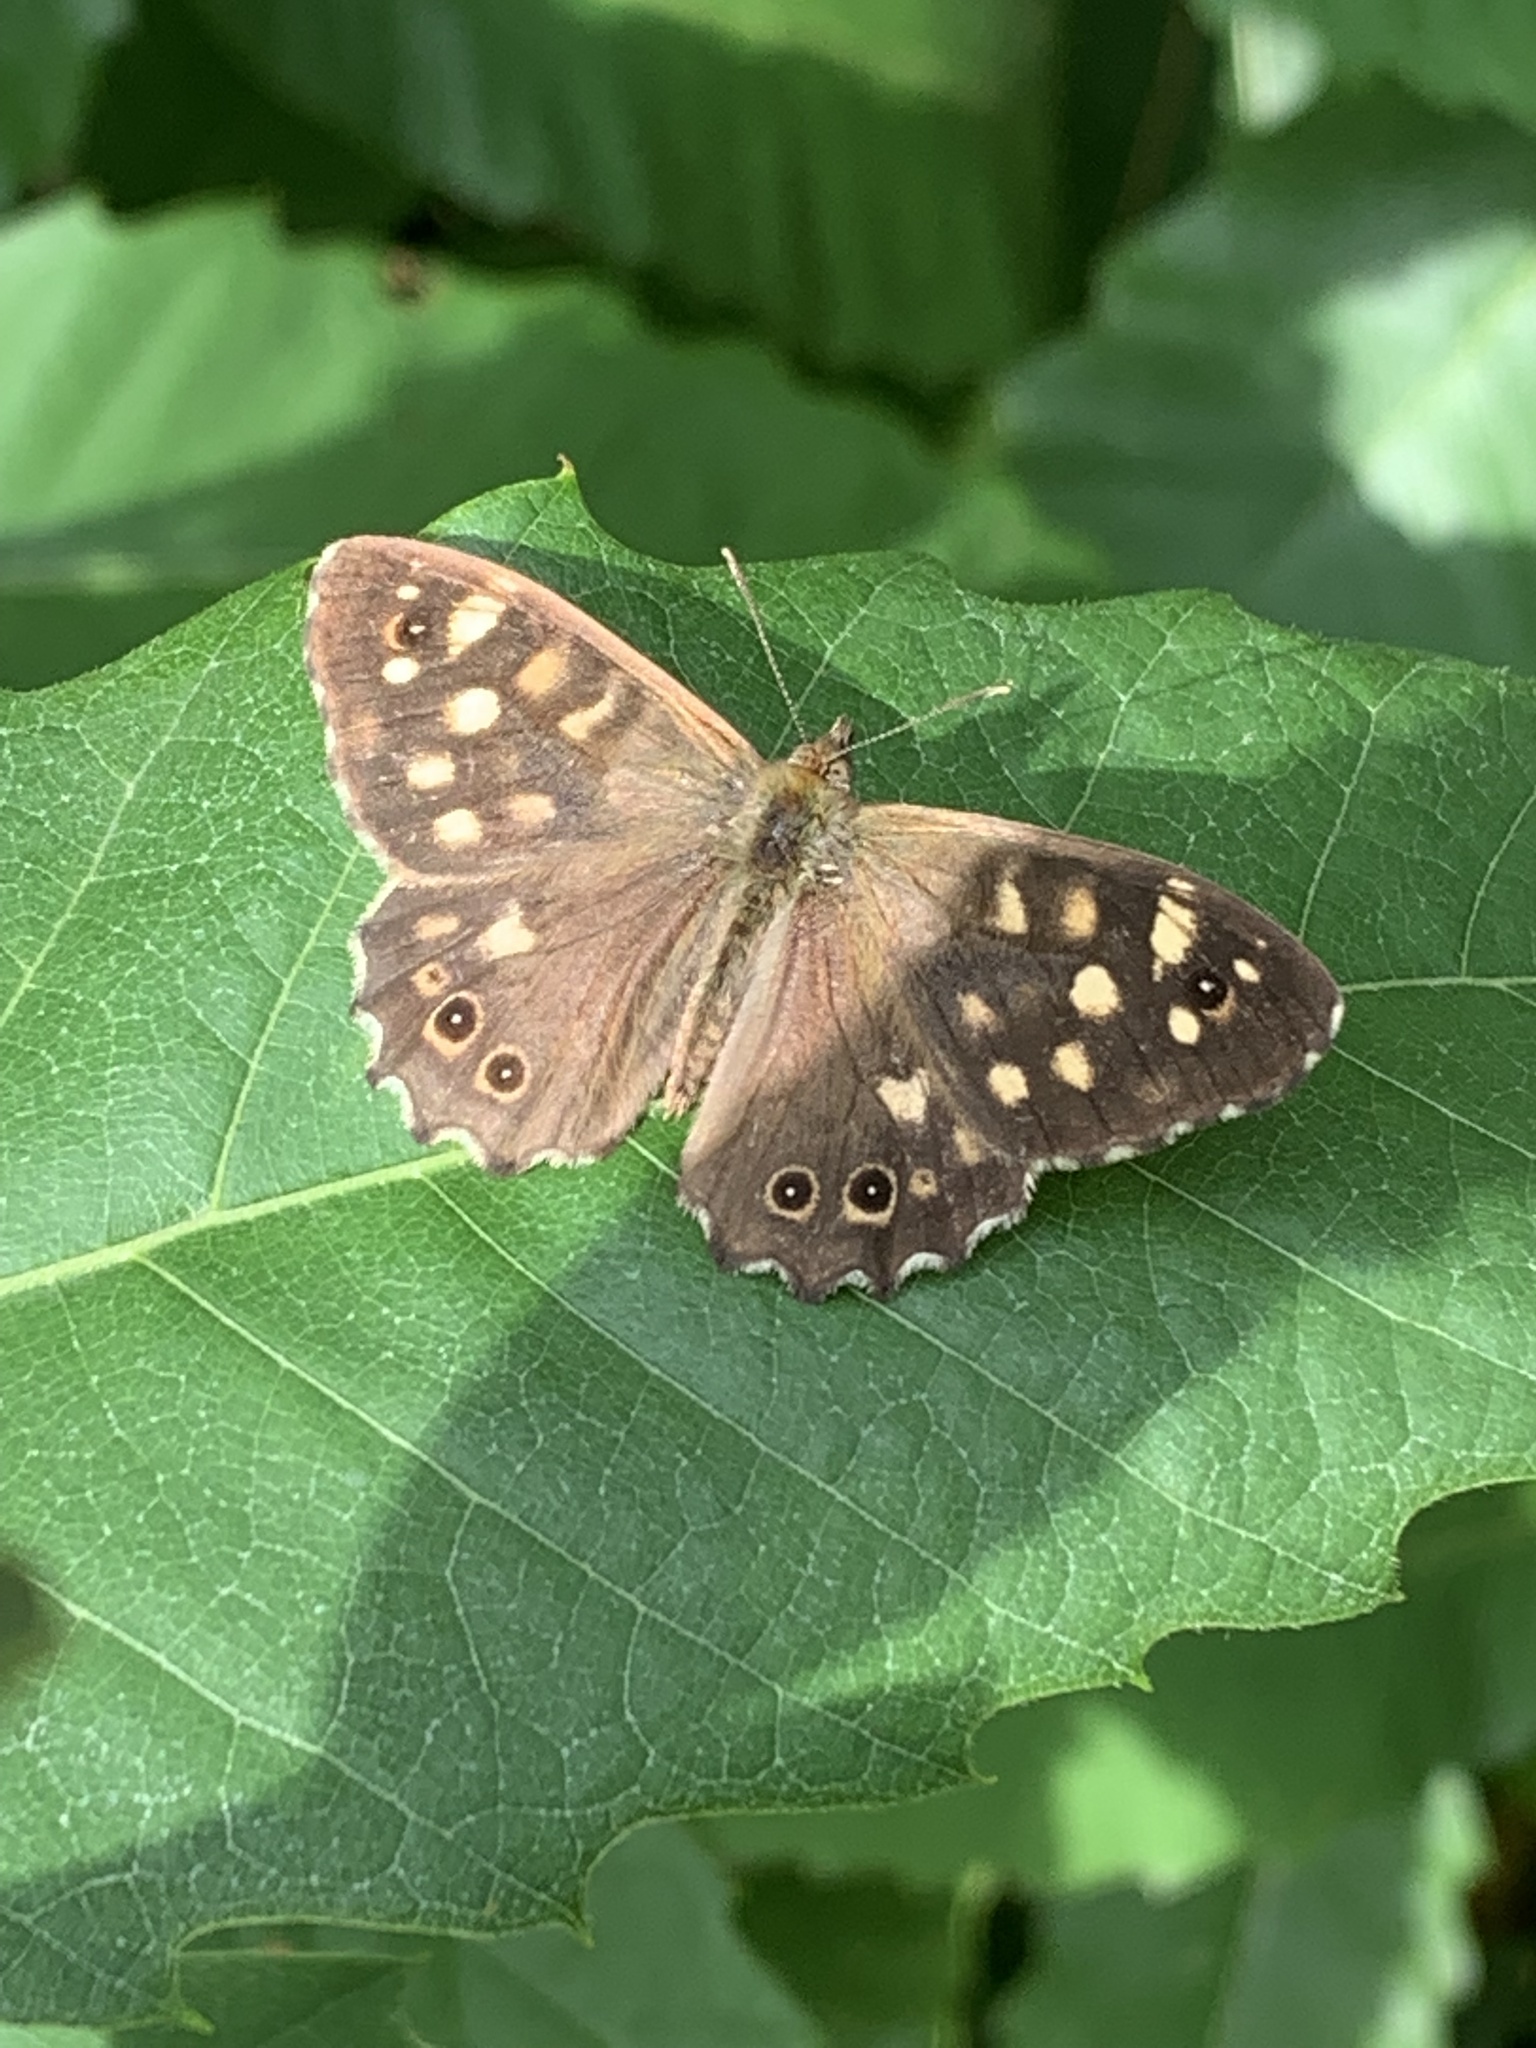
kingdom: Animalia
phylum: Arthropoda
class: Insecta
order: Lepidoptera
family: Nymphalidae
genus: Pararge
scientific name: Pararge aegeria
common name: Speckled wood
